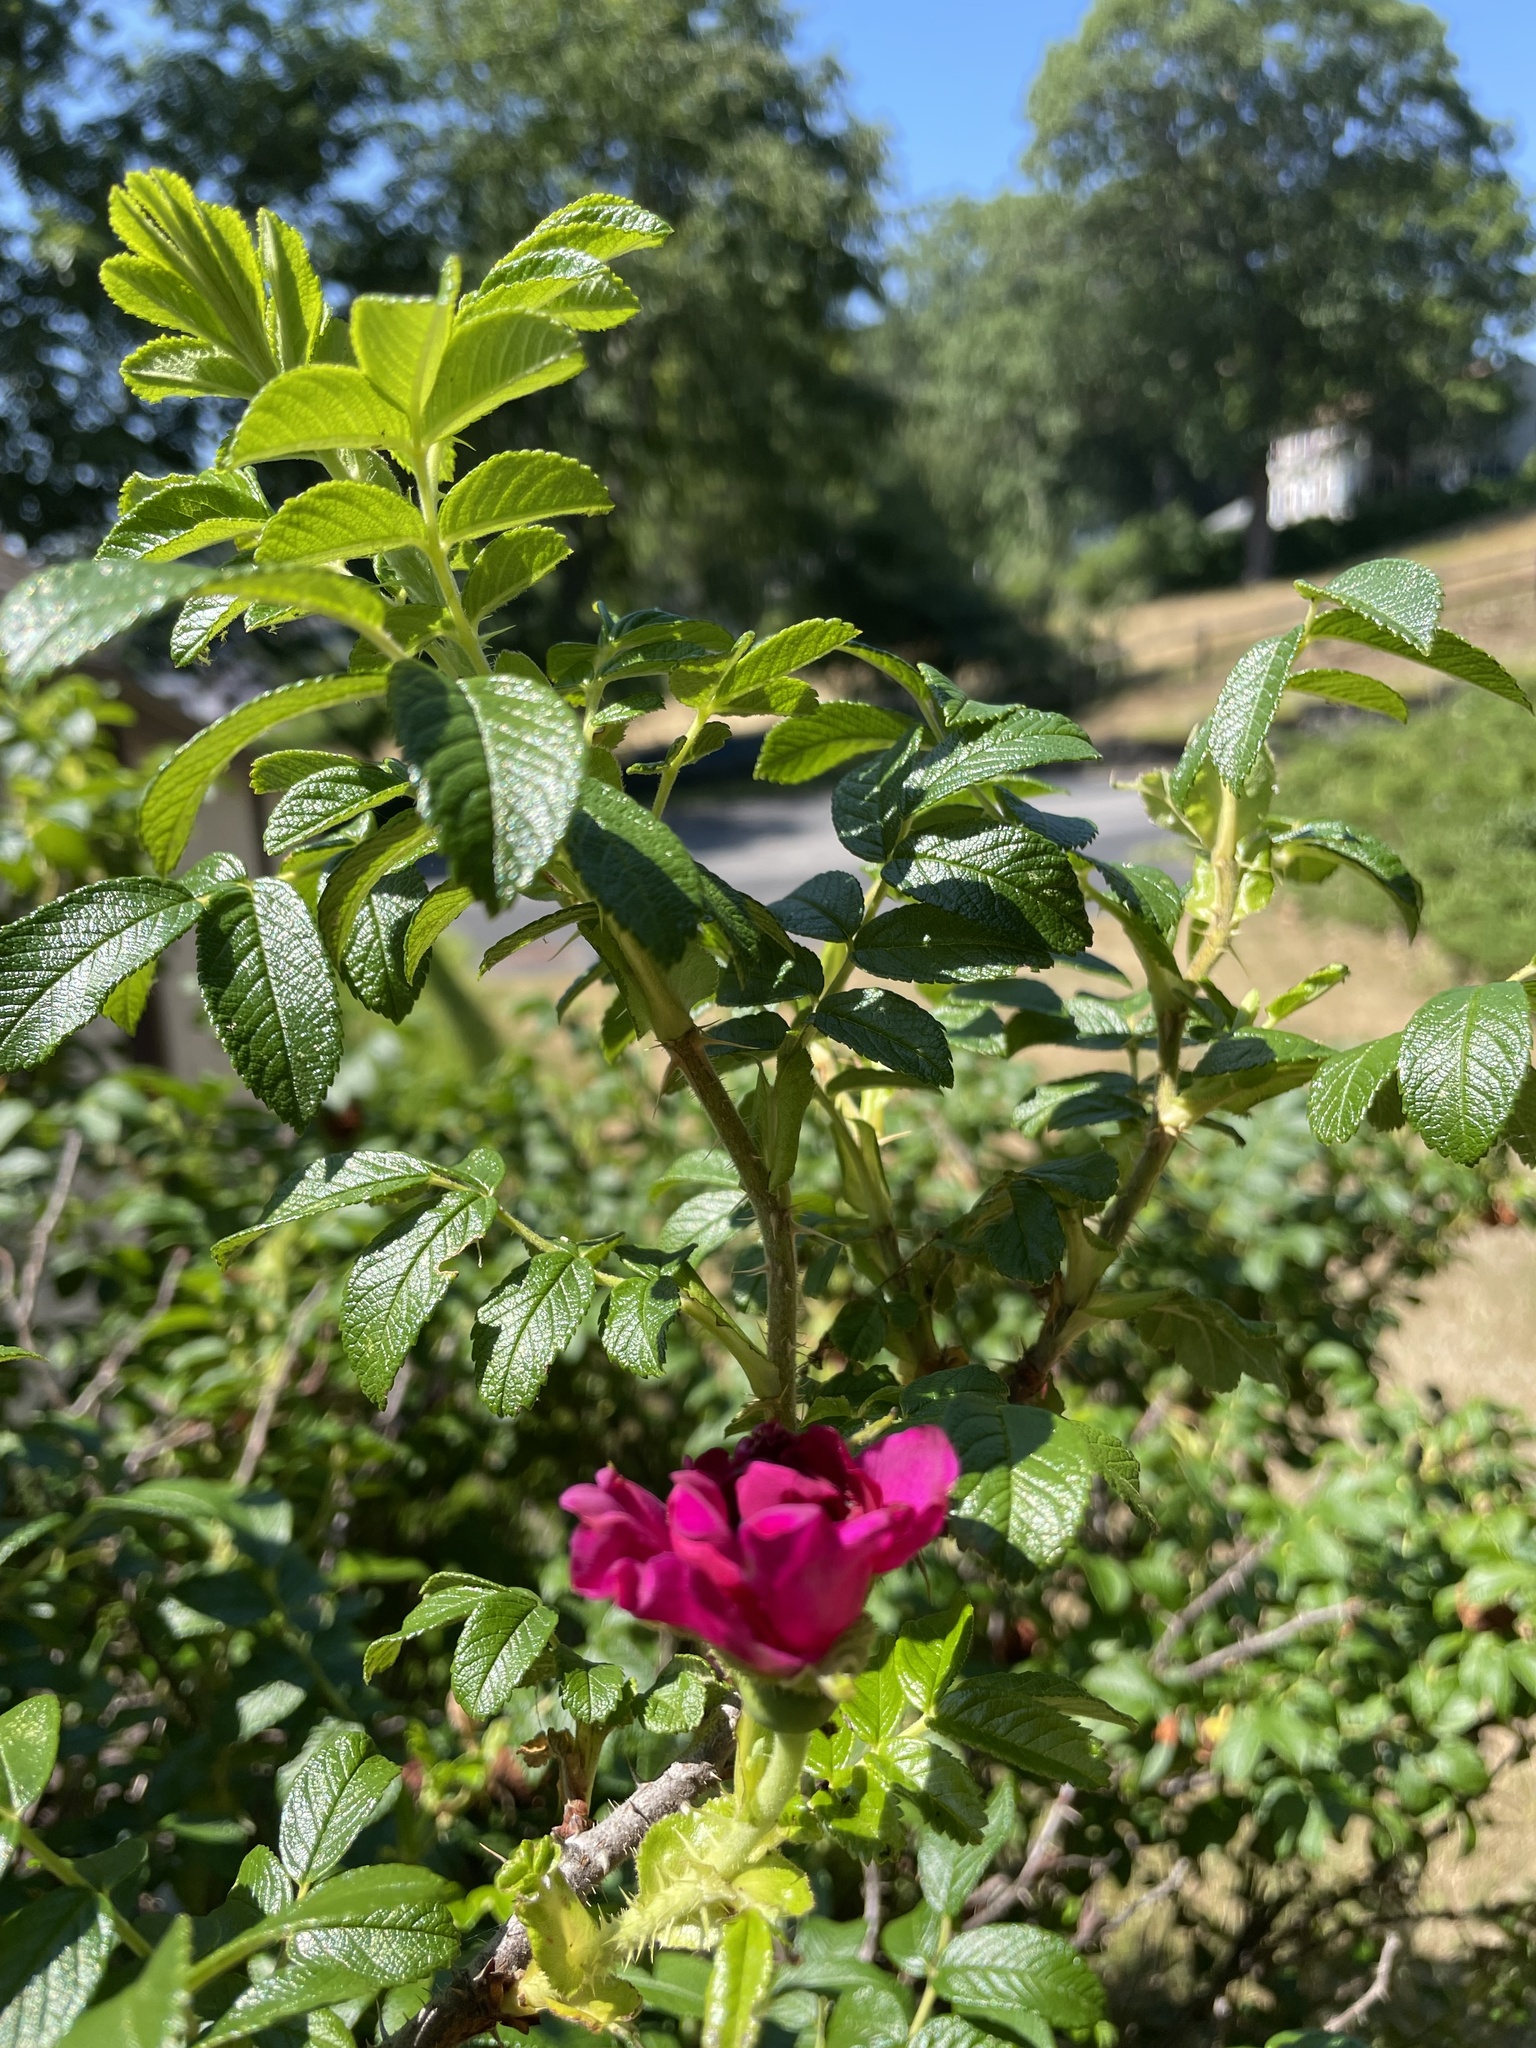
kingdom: Plantae
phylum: Tracheophyta
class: Magnoliopsida
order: Rosales
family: Rosaceae
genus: Rosa
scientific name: Rosa rugosa
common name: Japanese rose
